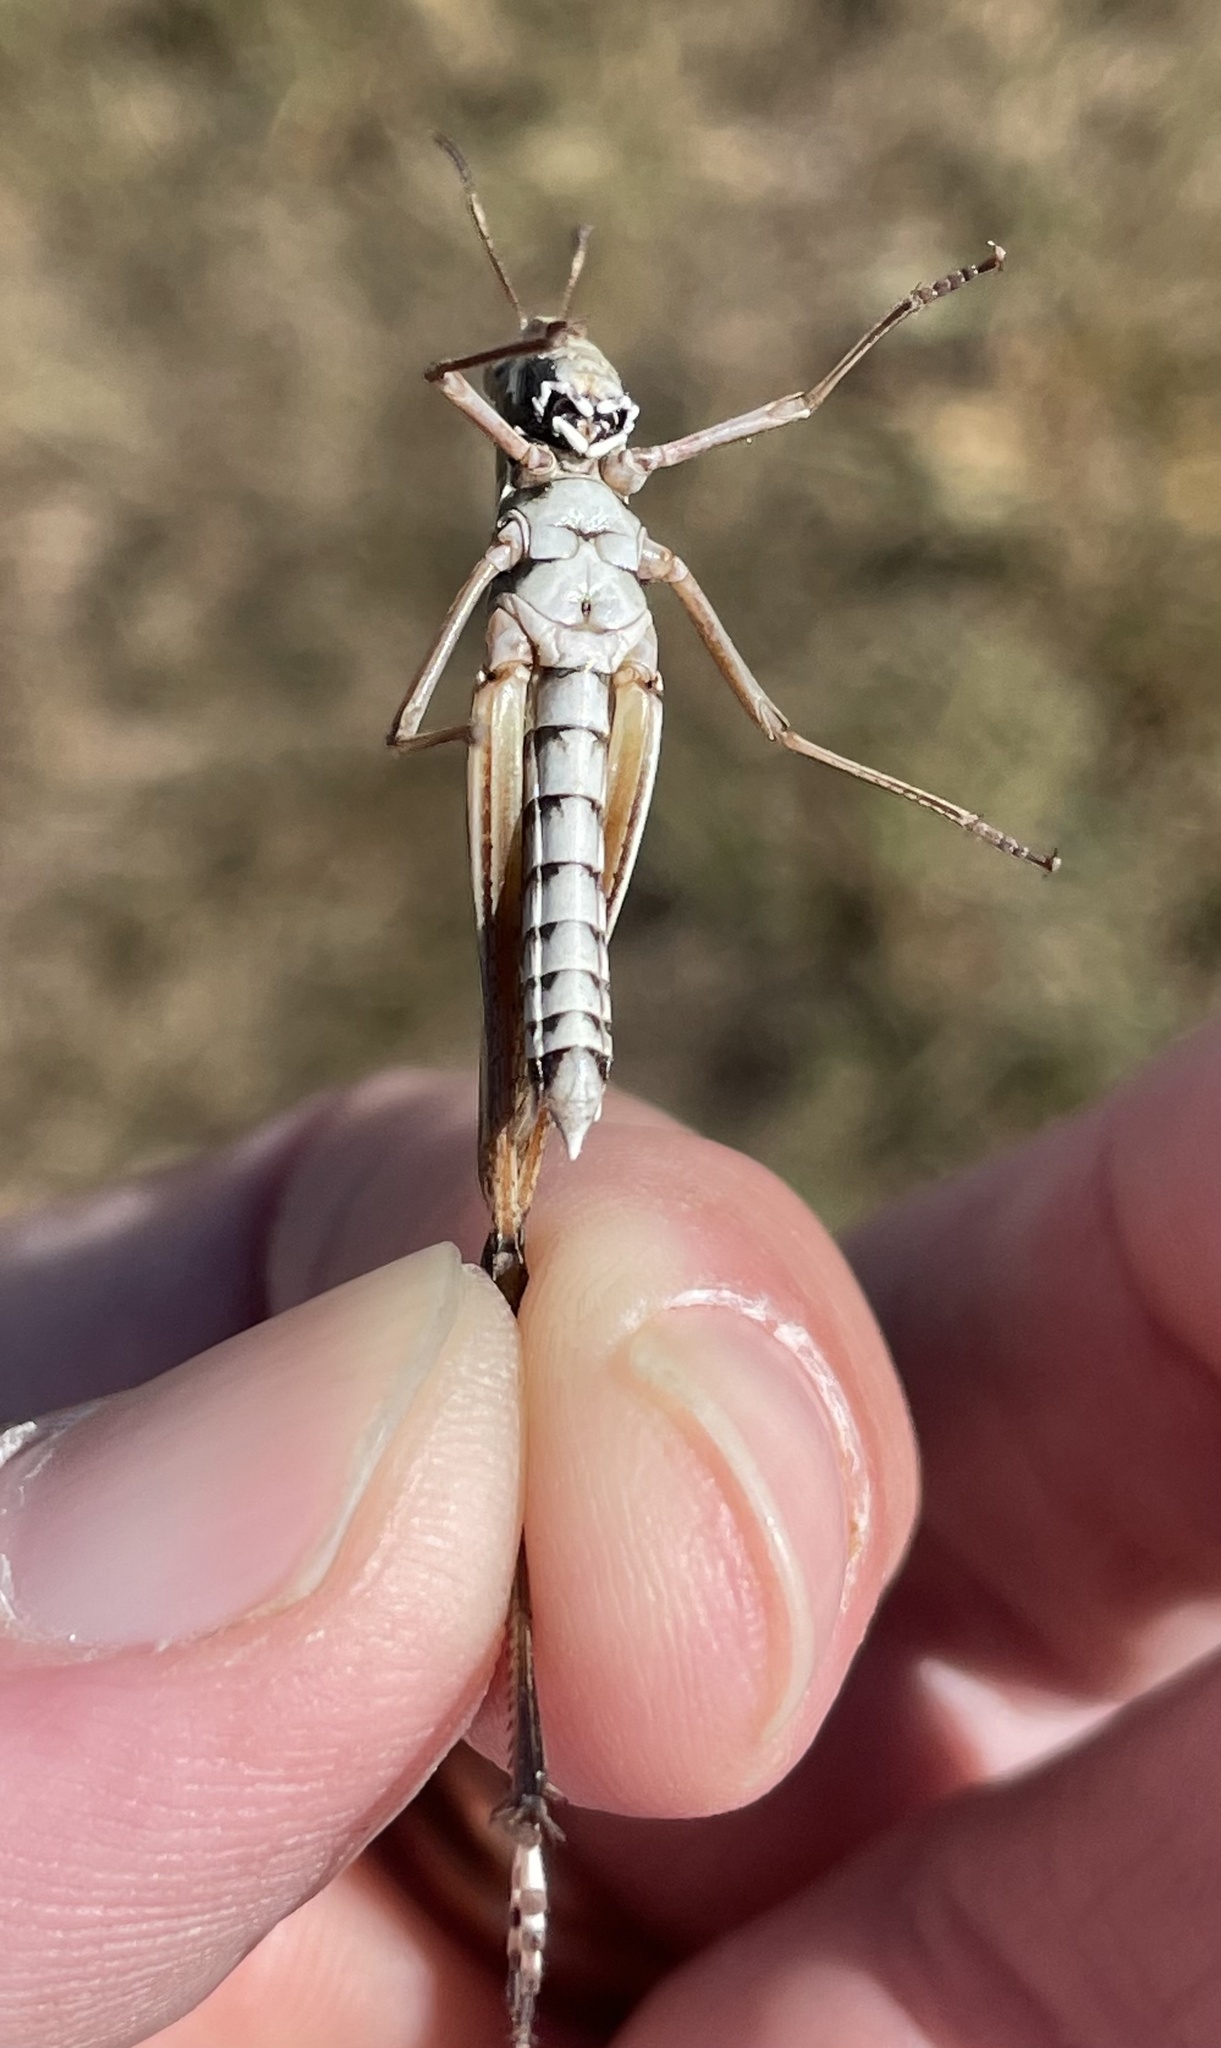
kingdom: Animalia
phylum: Arthropoda
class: Insecta
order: Orthoptera
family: Acrididae
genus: Syrbula
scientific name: Syrbula admirabilis
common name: Handsome grasshopper
